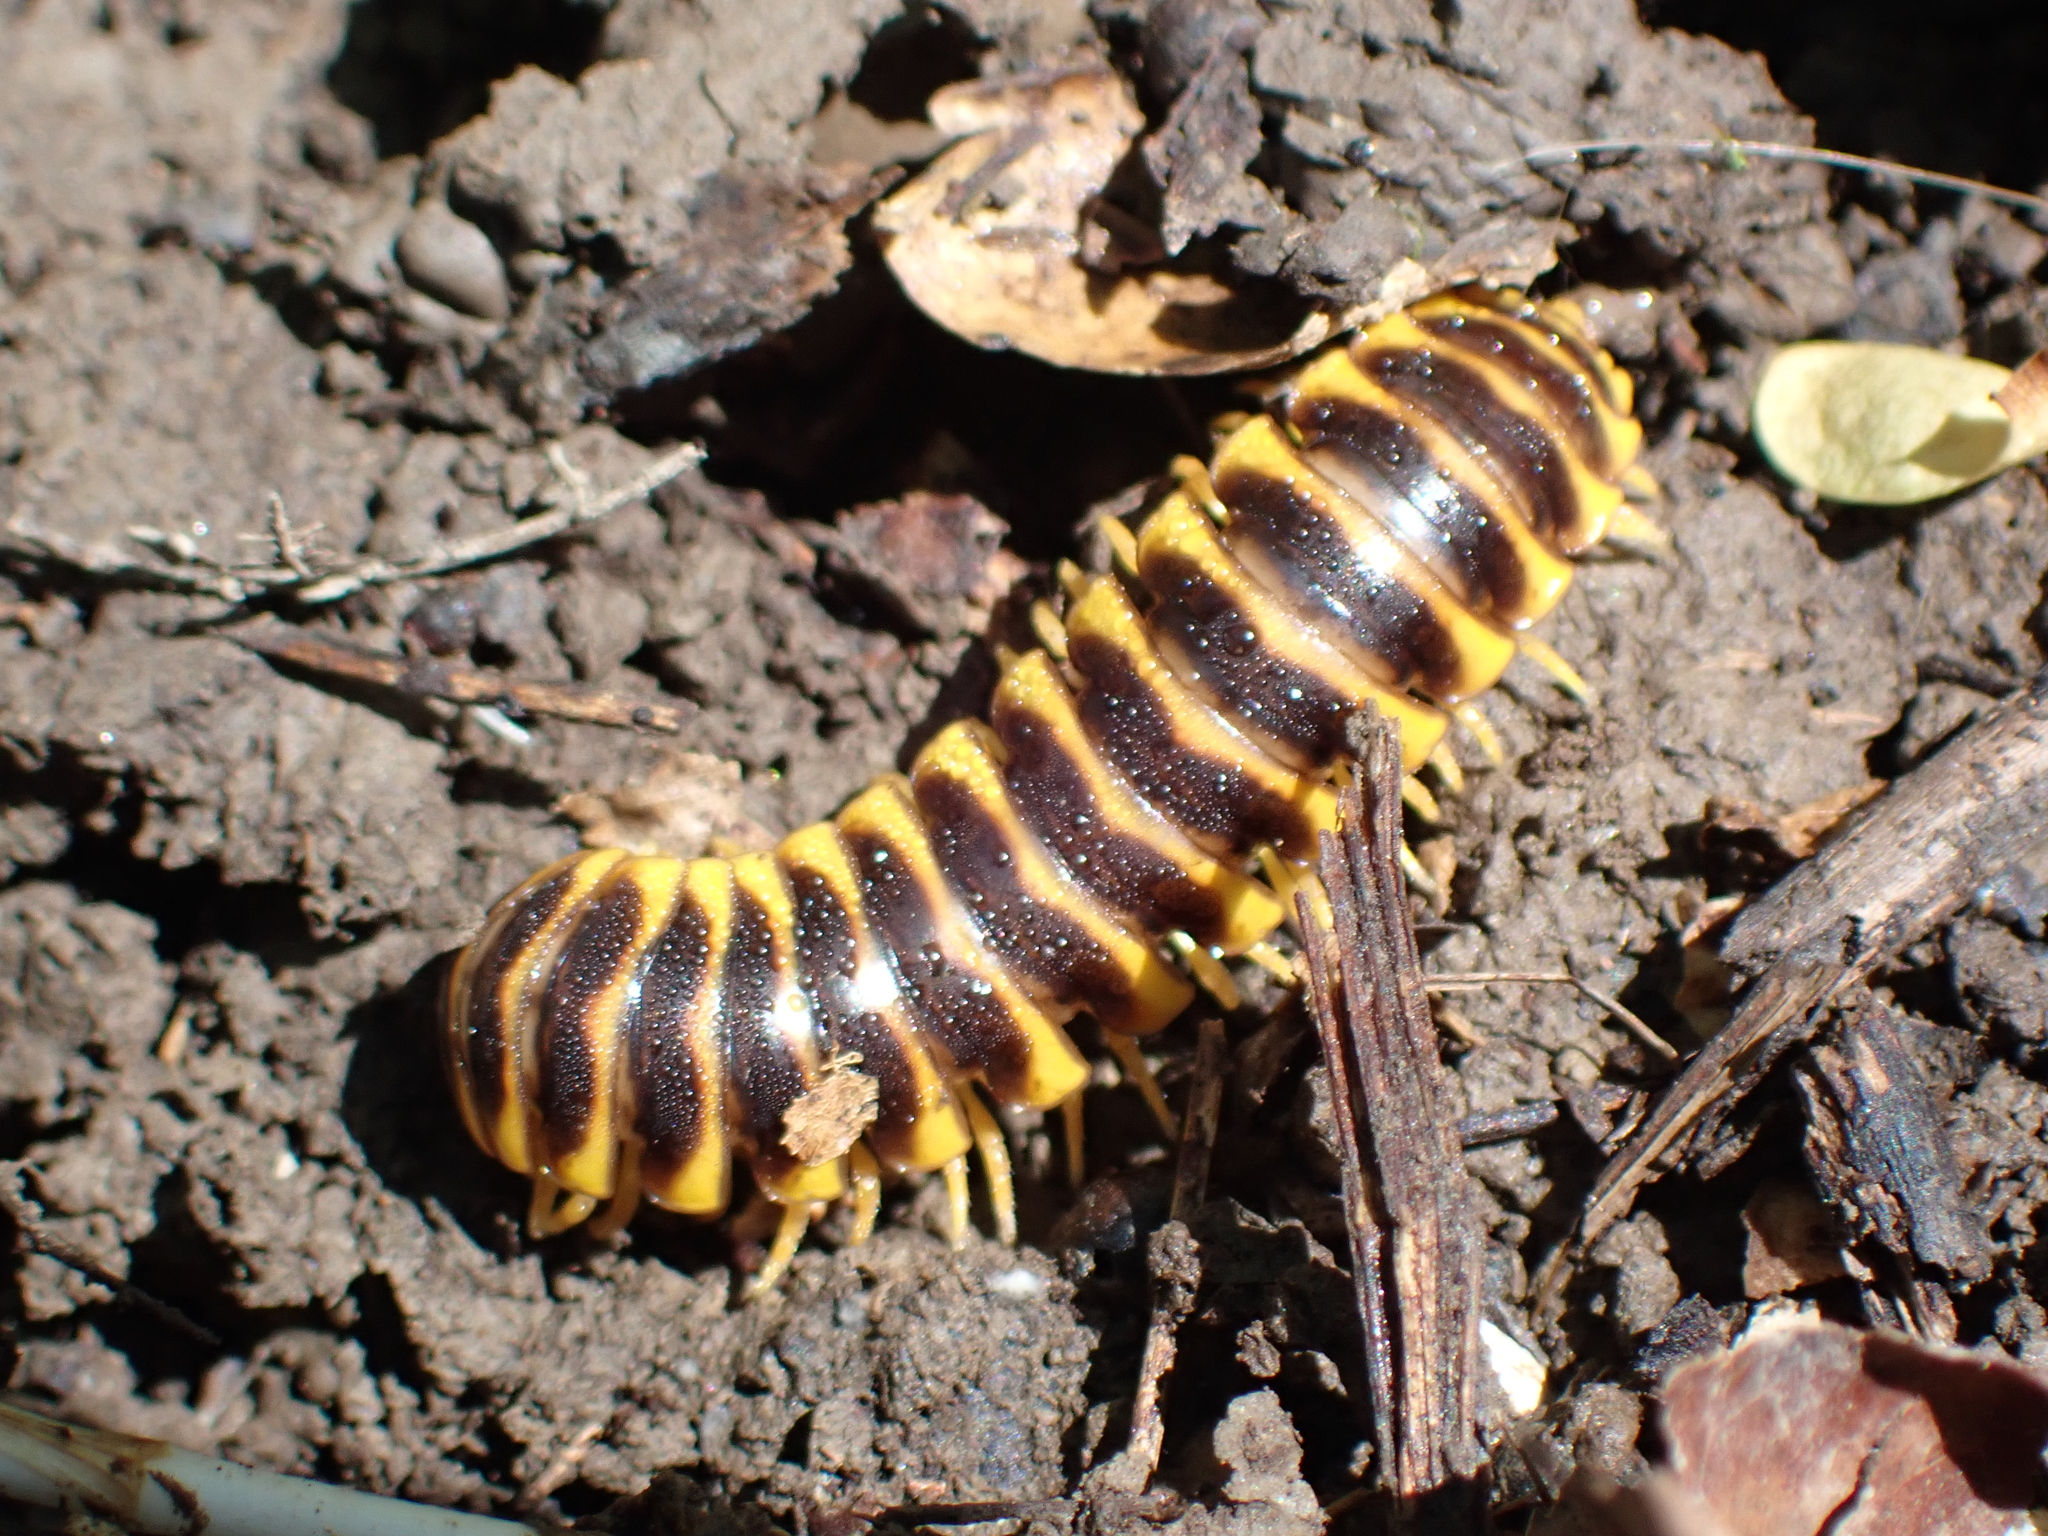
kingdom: Animalia
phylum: Arthropoda
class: Diplopoda
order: Polydesmida
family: Xystodesmidae
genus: Apheloria
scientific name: Apheloria virginiensis
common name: Black-and-gold flat millipede
